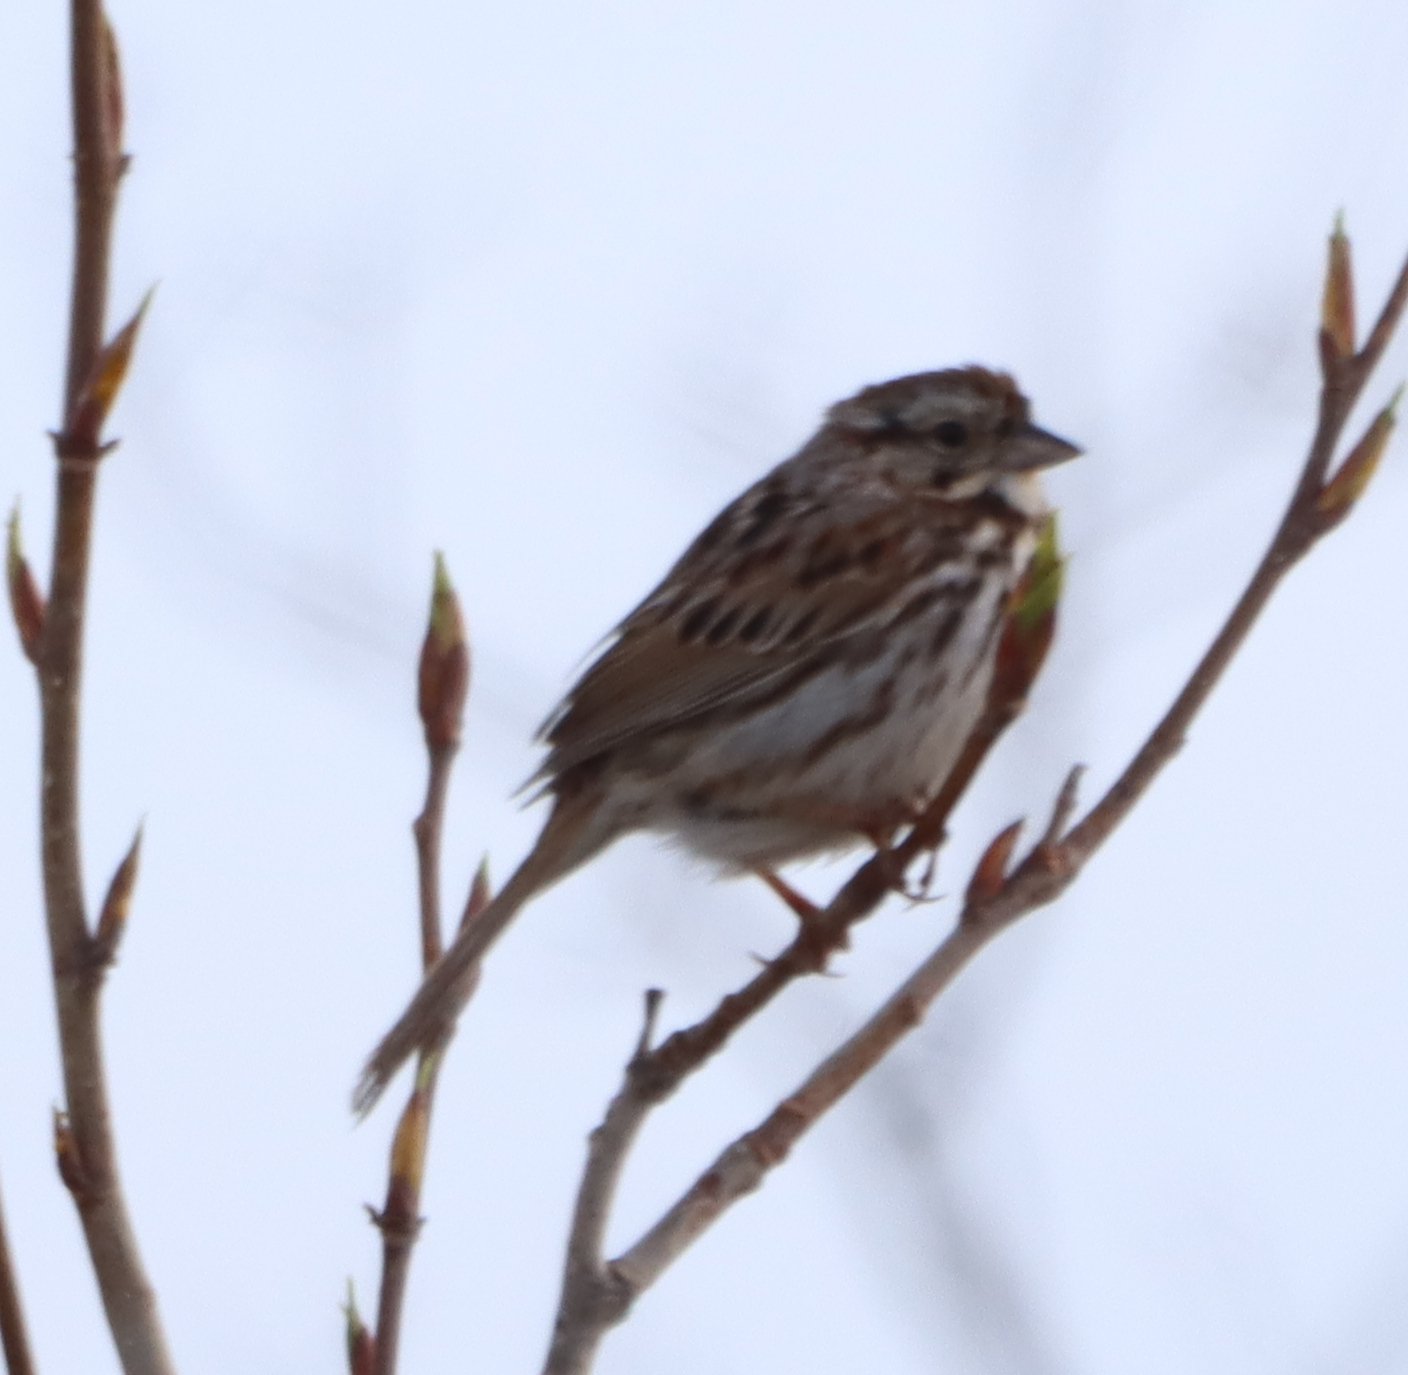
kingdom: Animalia
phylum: Chordata
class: Aves
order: Passeriformes
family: Passerellidae
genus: Melospiza
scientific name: Melospiza melodia
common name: Song sparrow
